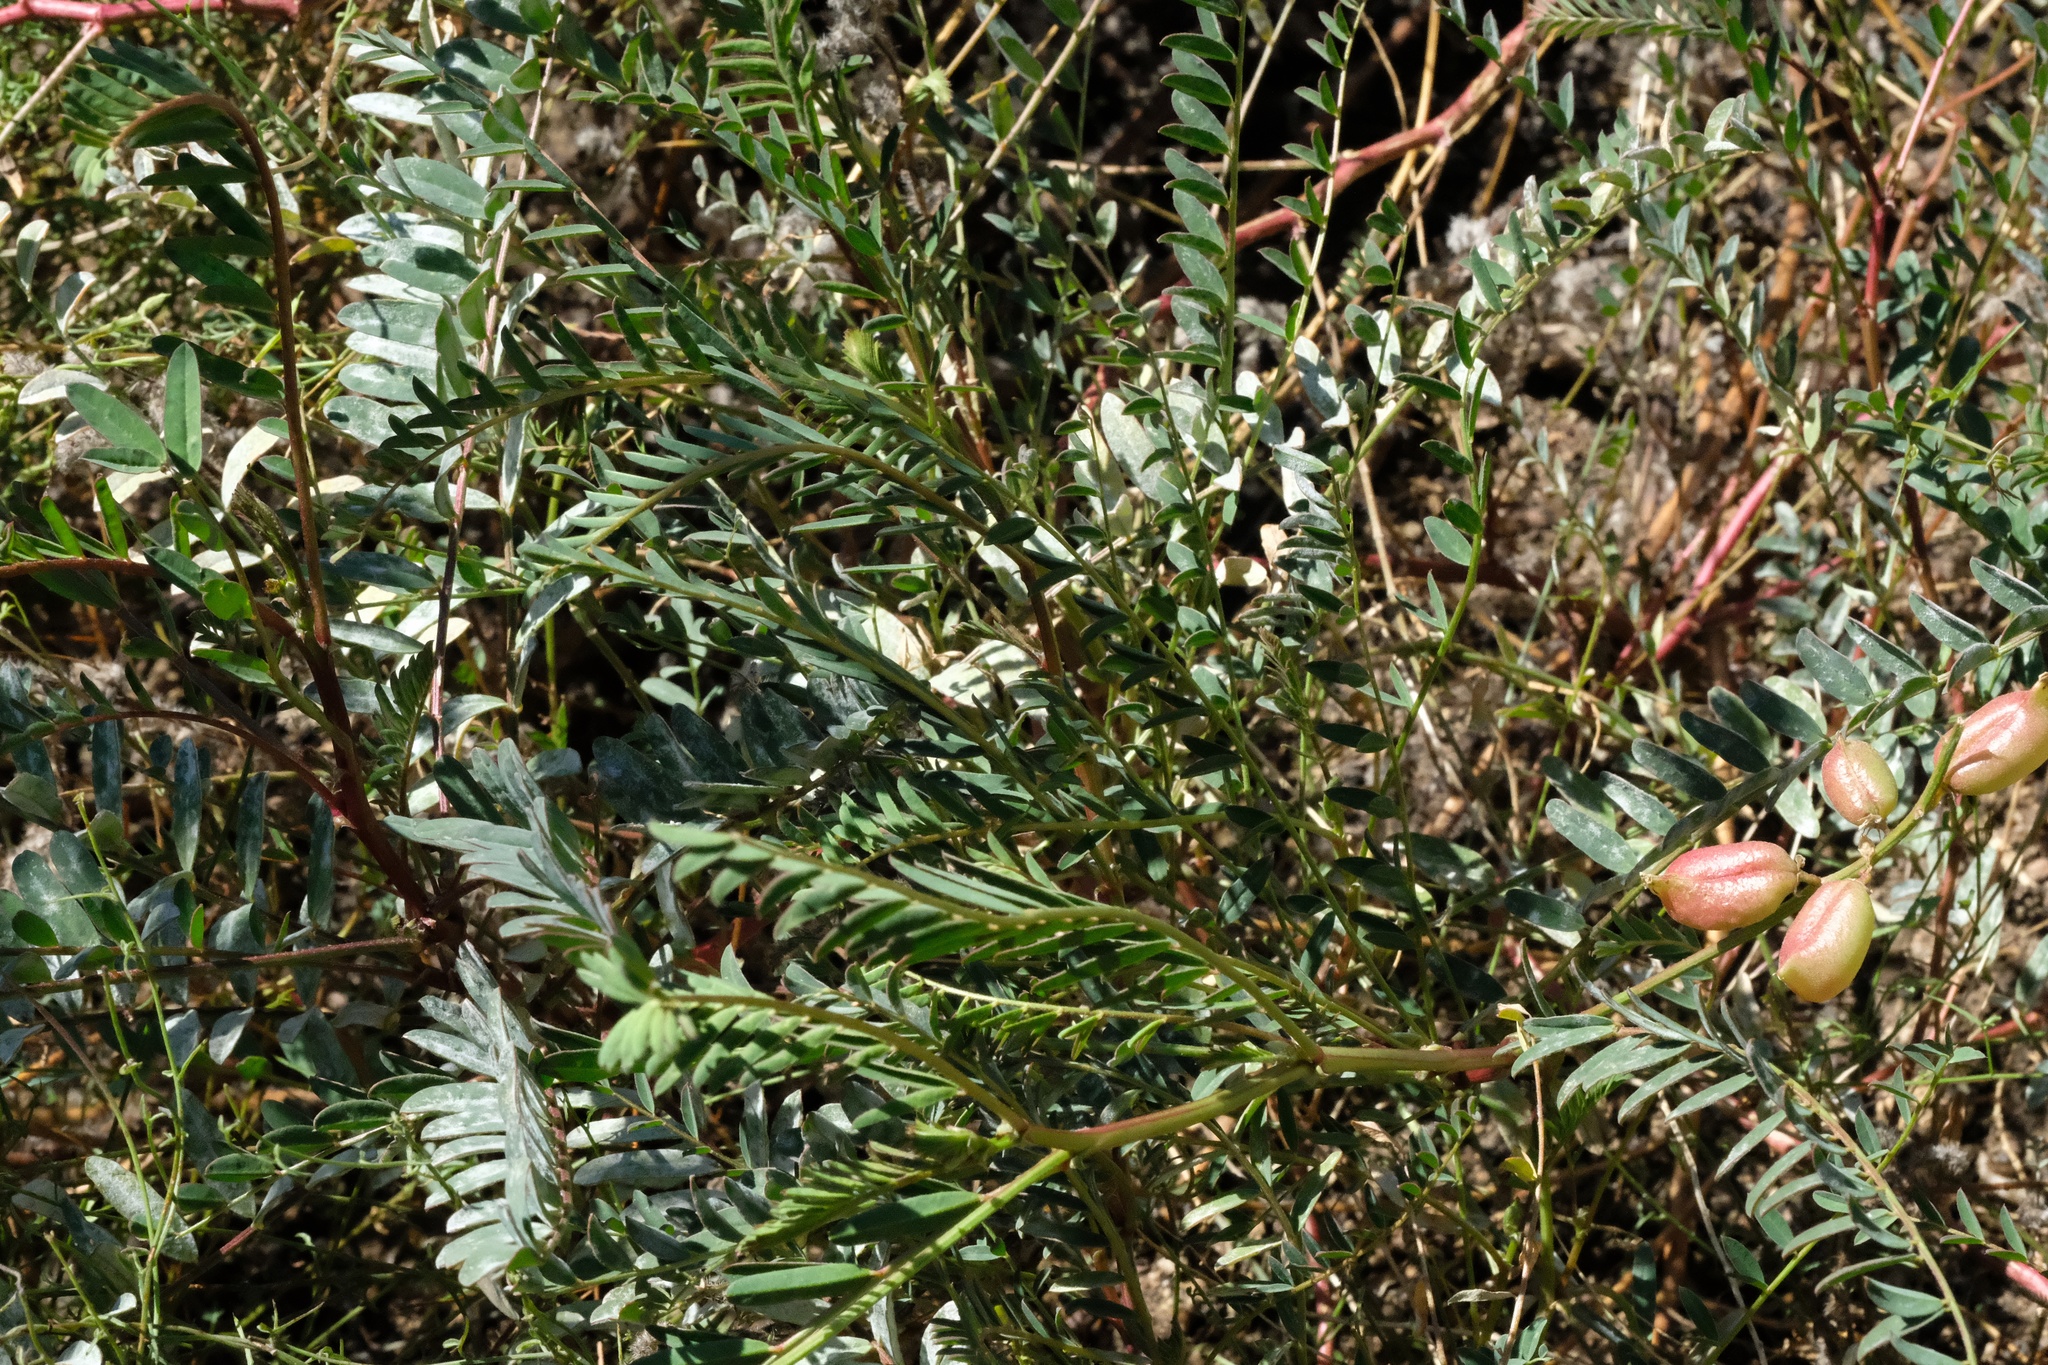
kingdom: Plantae
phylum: Tracheophyta
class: Magnoliopsida
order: Fabales
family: Fabaceae
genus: Astragalus
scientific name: Astragalus oocarpus
